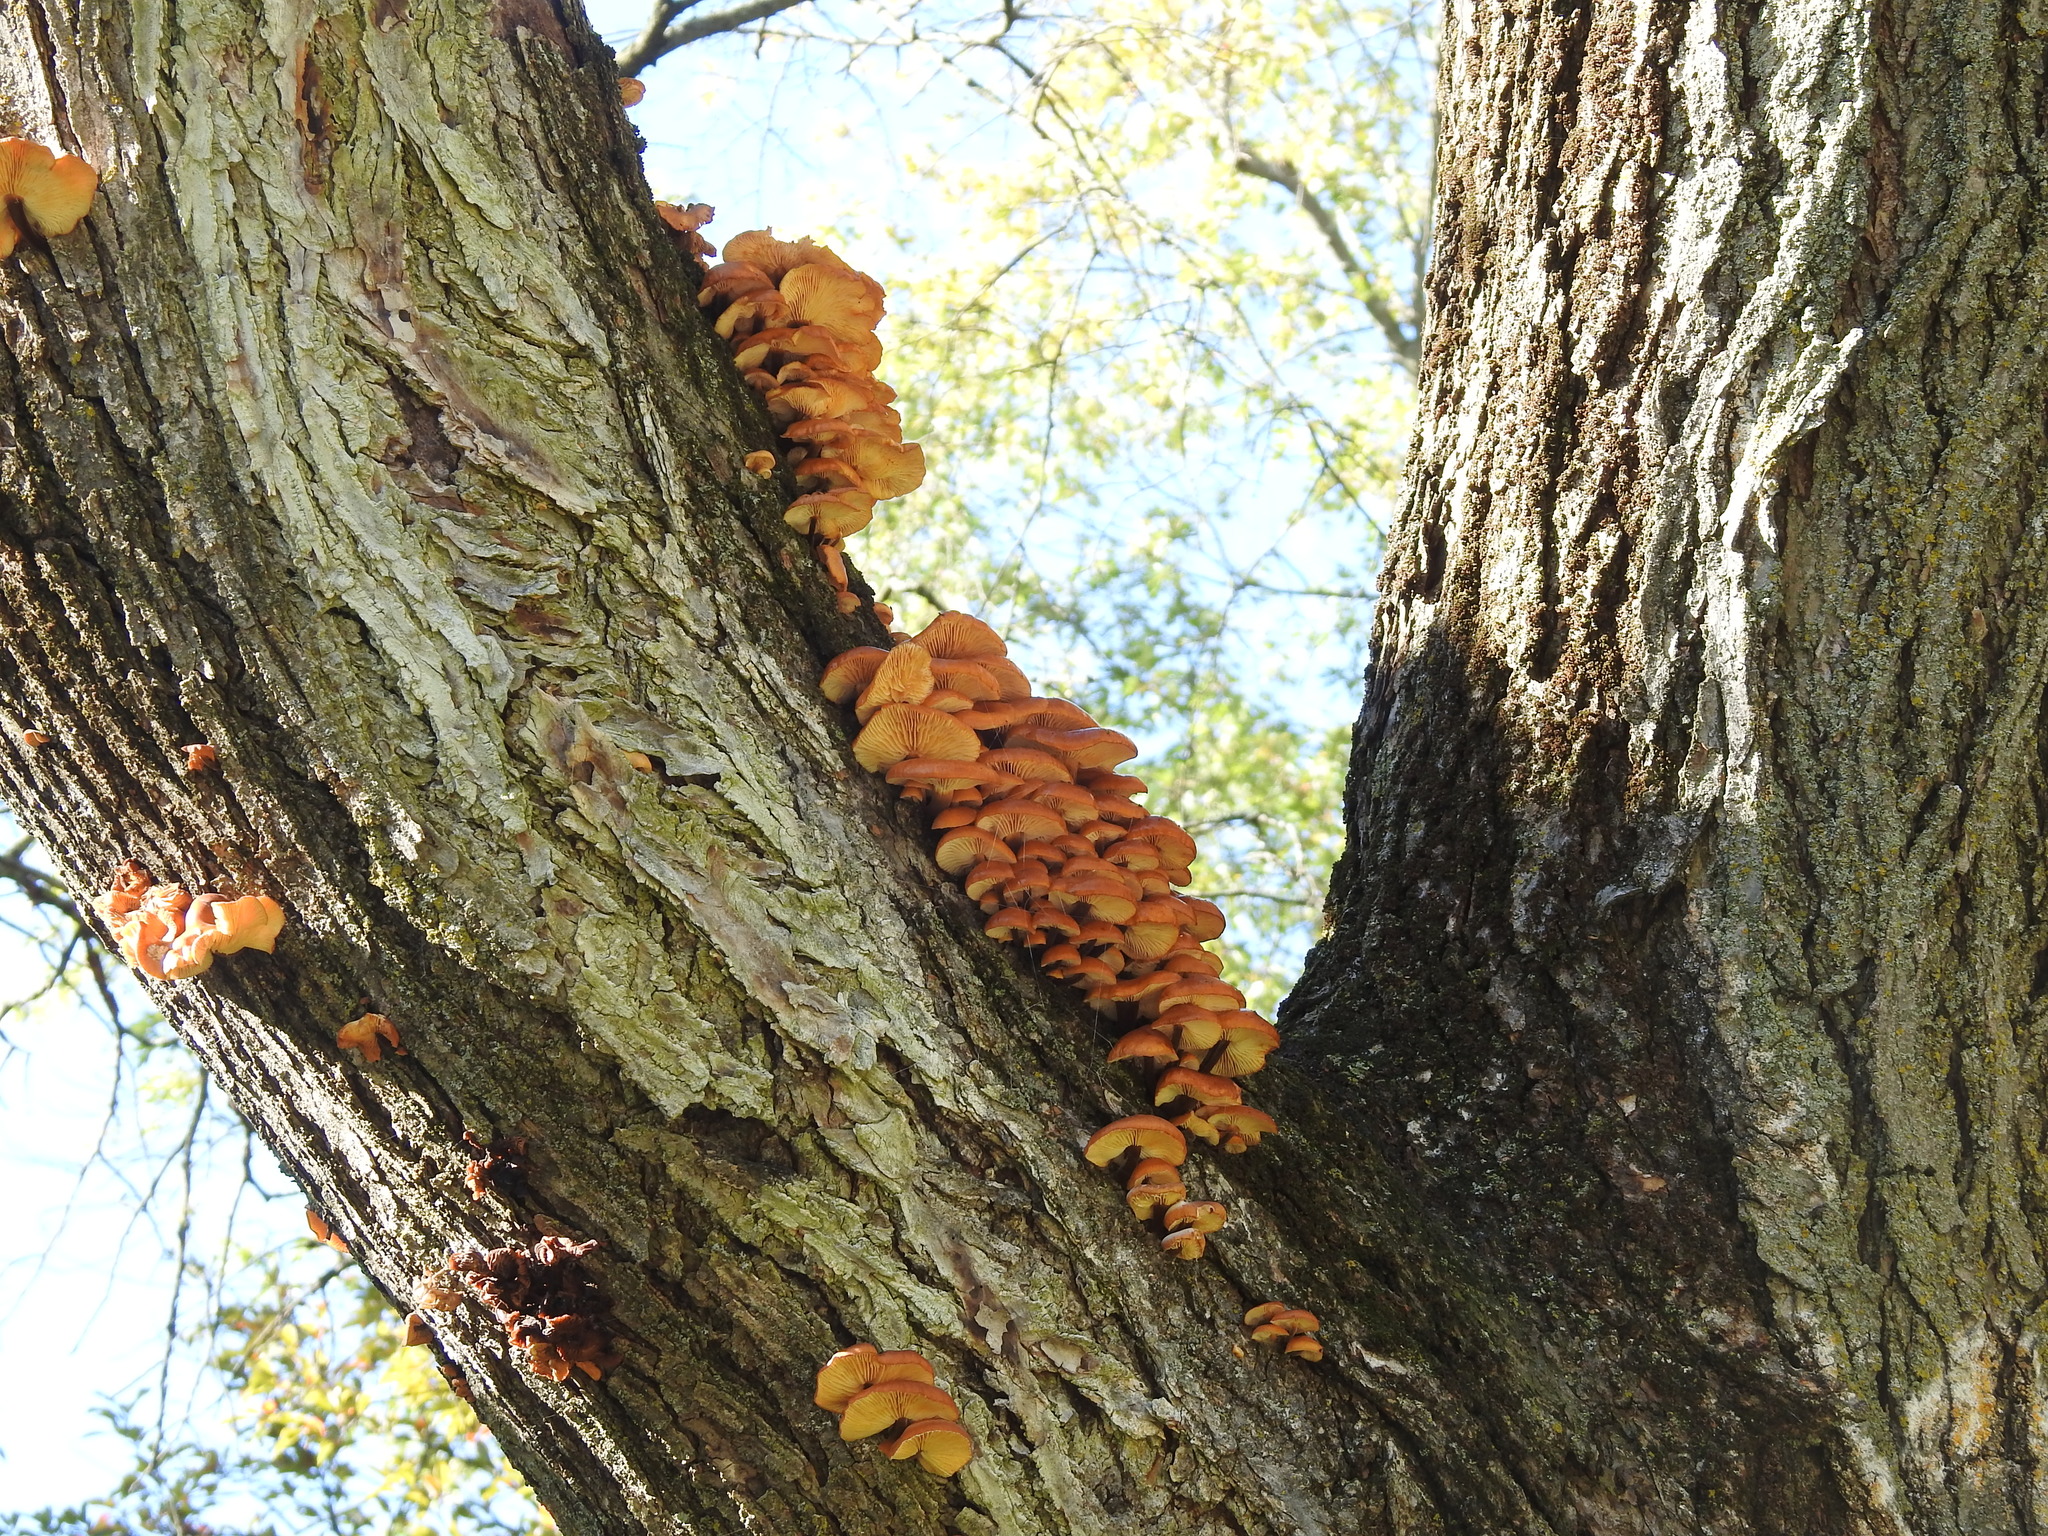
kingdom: Fungi
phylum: Basidiomycota
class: Agaricomycetes
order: Agaricales
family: Physalacriaceae
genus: Flammulina
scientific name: Flammulina velutipes
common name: Velvet shank
